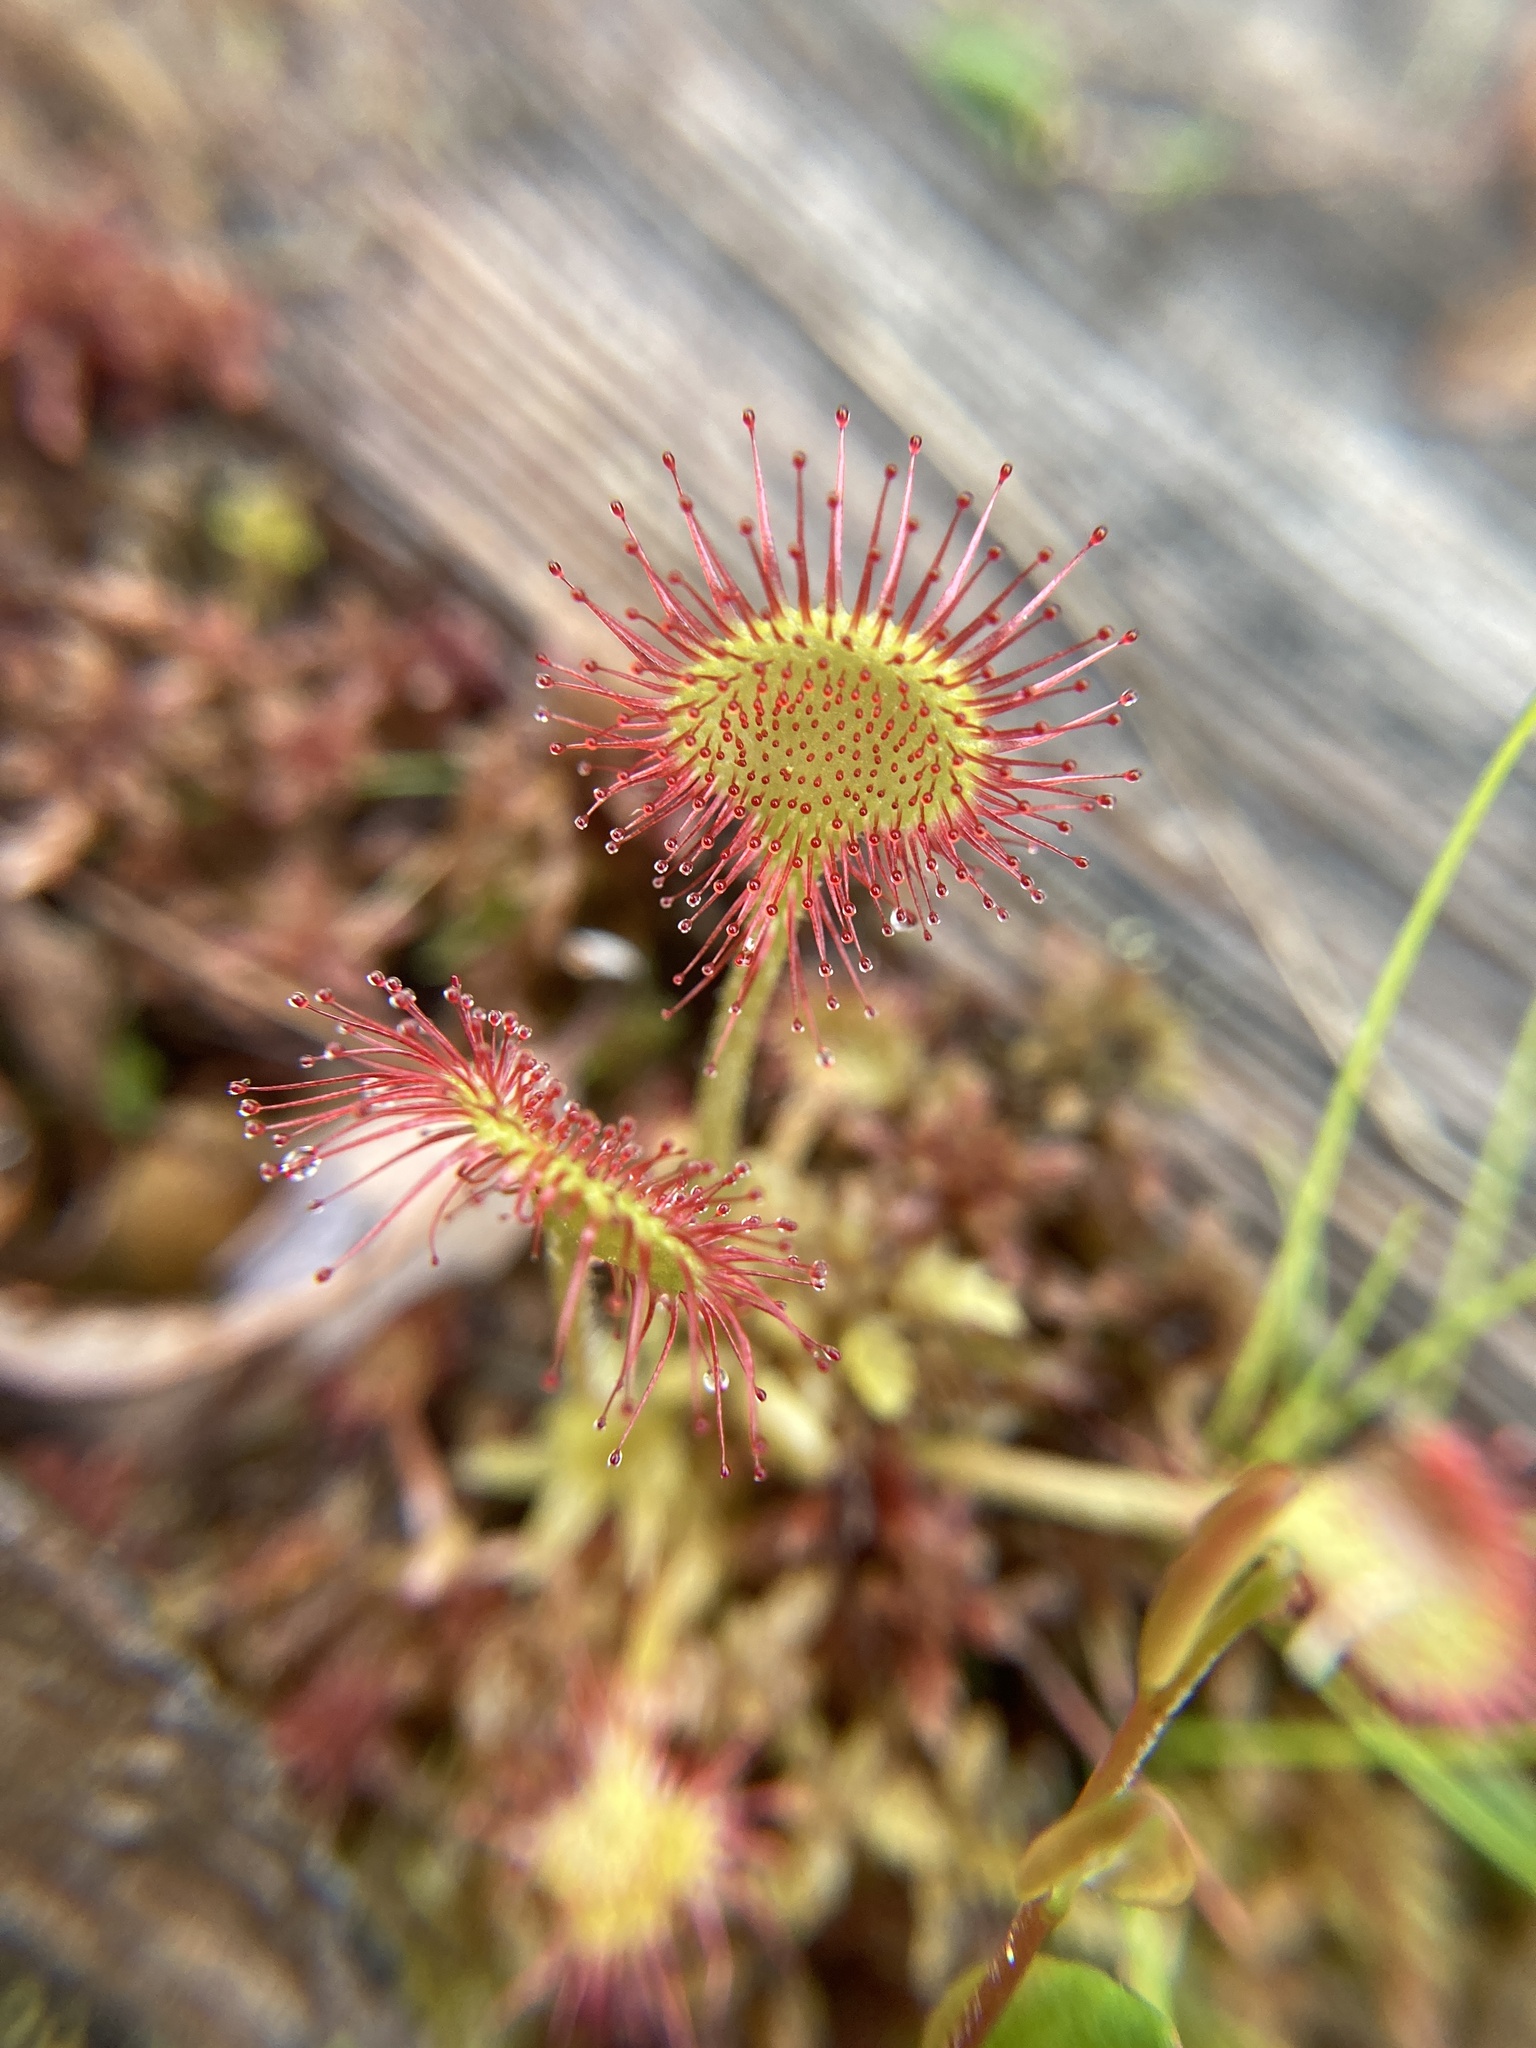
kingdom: Plantae
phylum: Tracheophyta
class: Magnoliopsida
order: Caryophyllales
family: Droseraceae
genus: Drosera
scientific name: Drosera rotundifolia
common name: Round-leaved sundew
